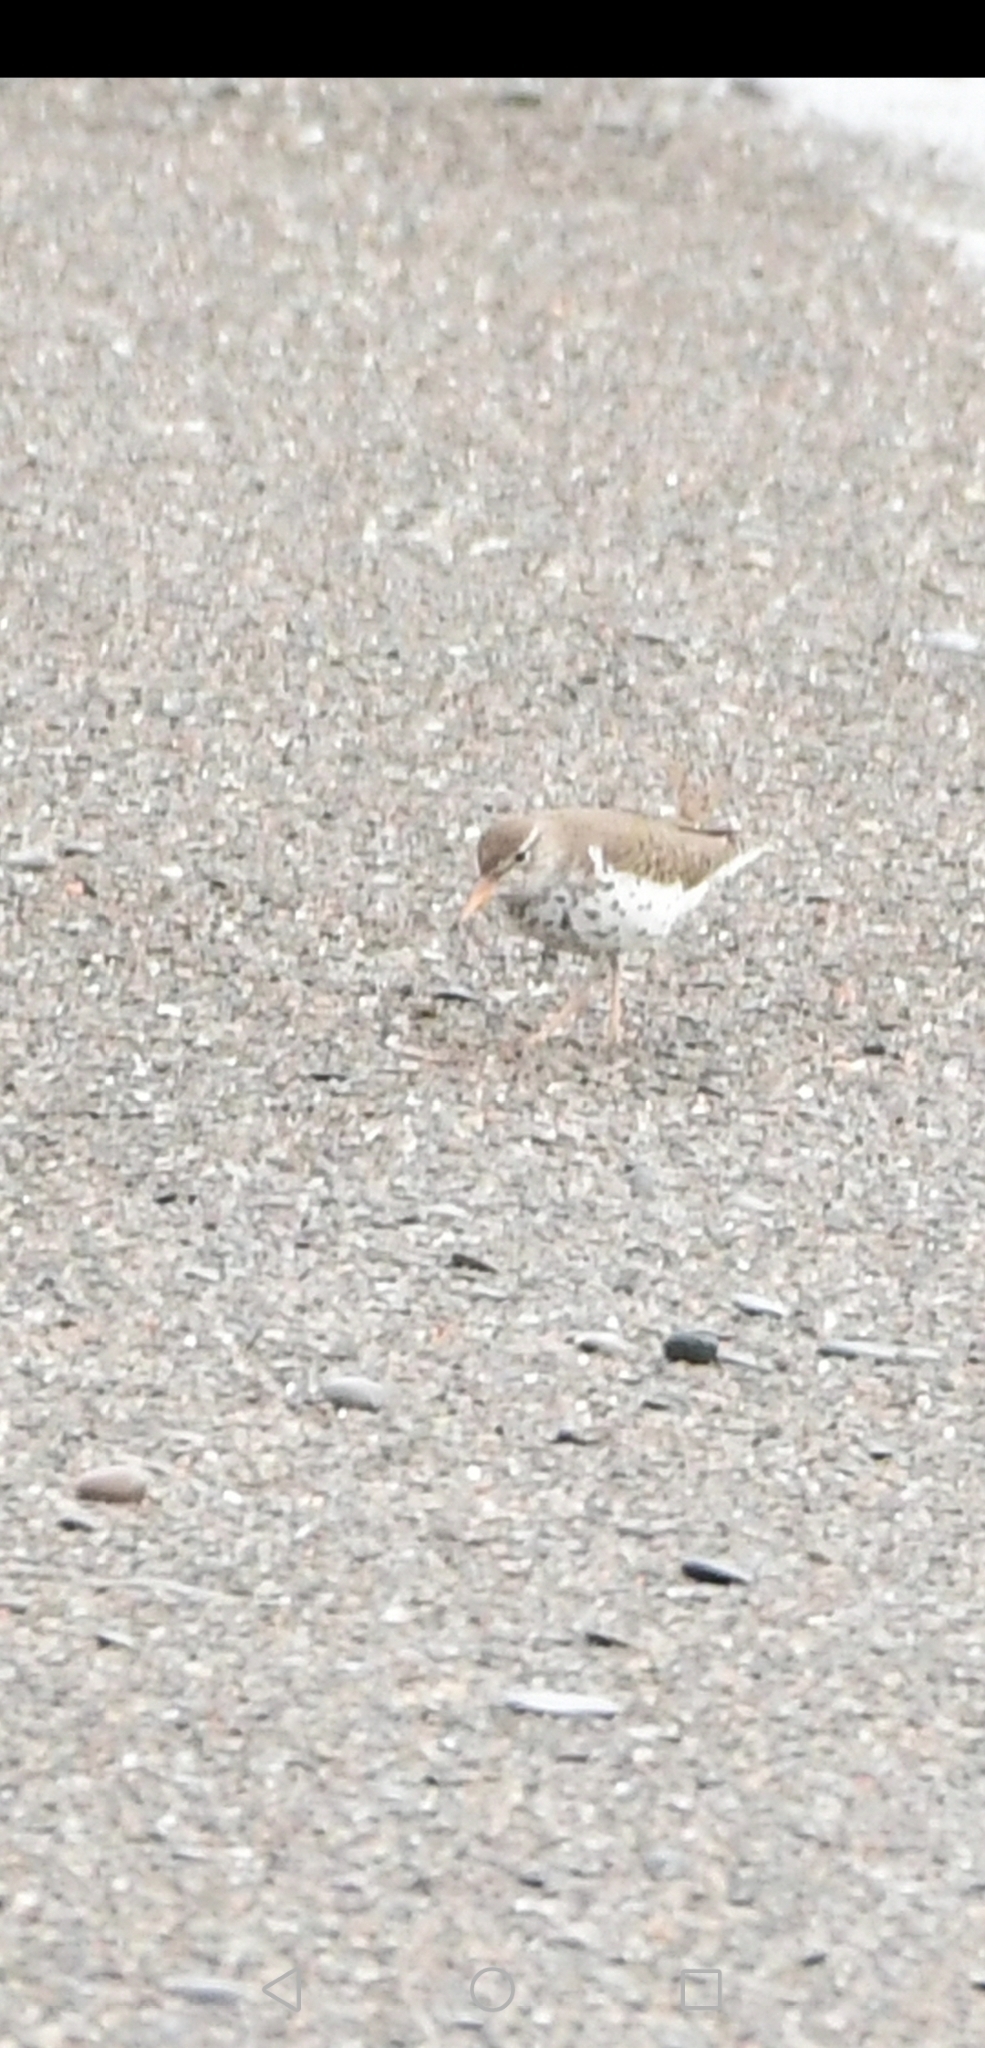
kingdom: Animalia
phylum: Chordata
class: Aves
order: Charadriiformes
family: Scolopacidae
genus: Actitis
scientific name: Actitis macularius
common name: Spotted sandpiper
